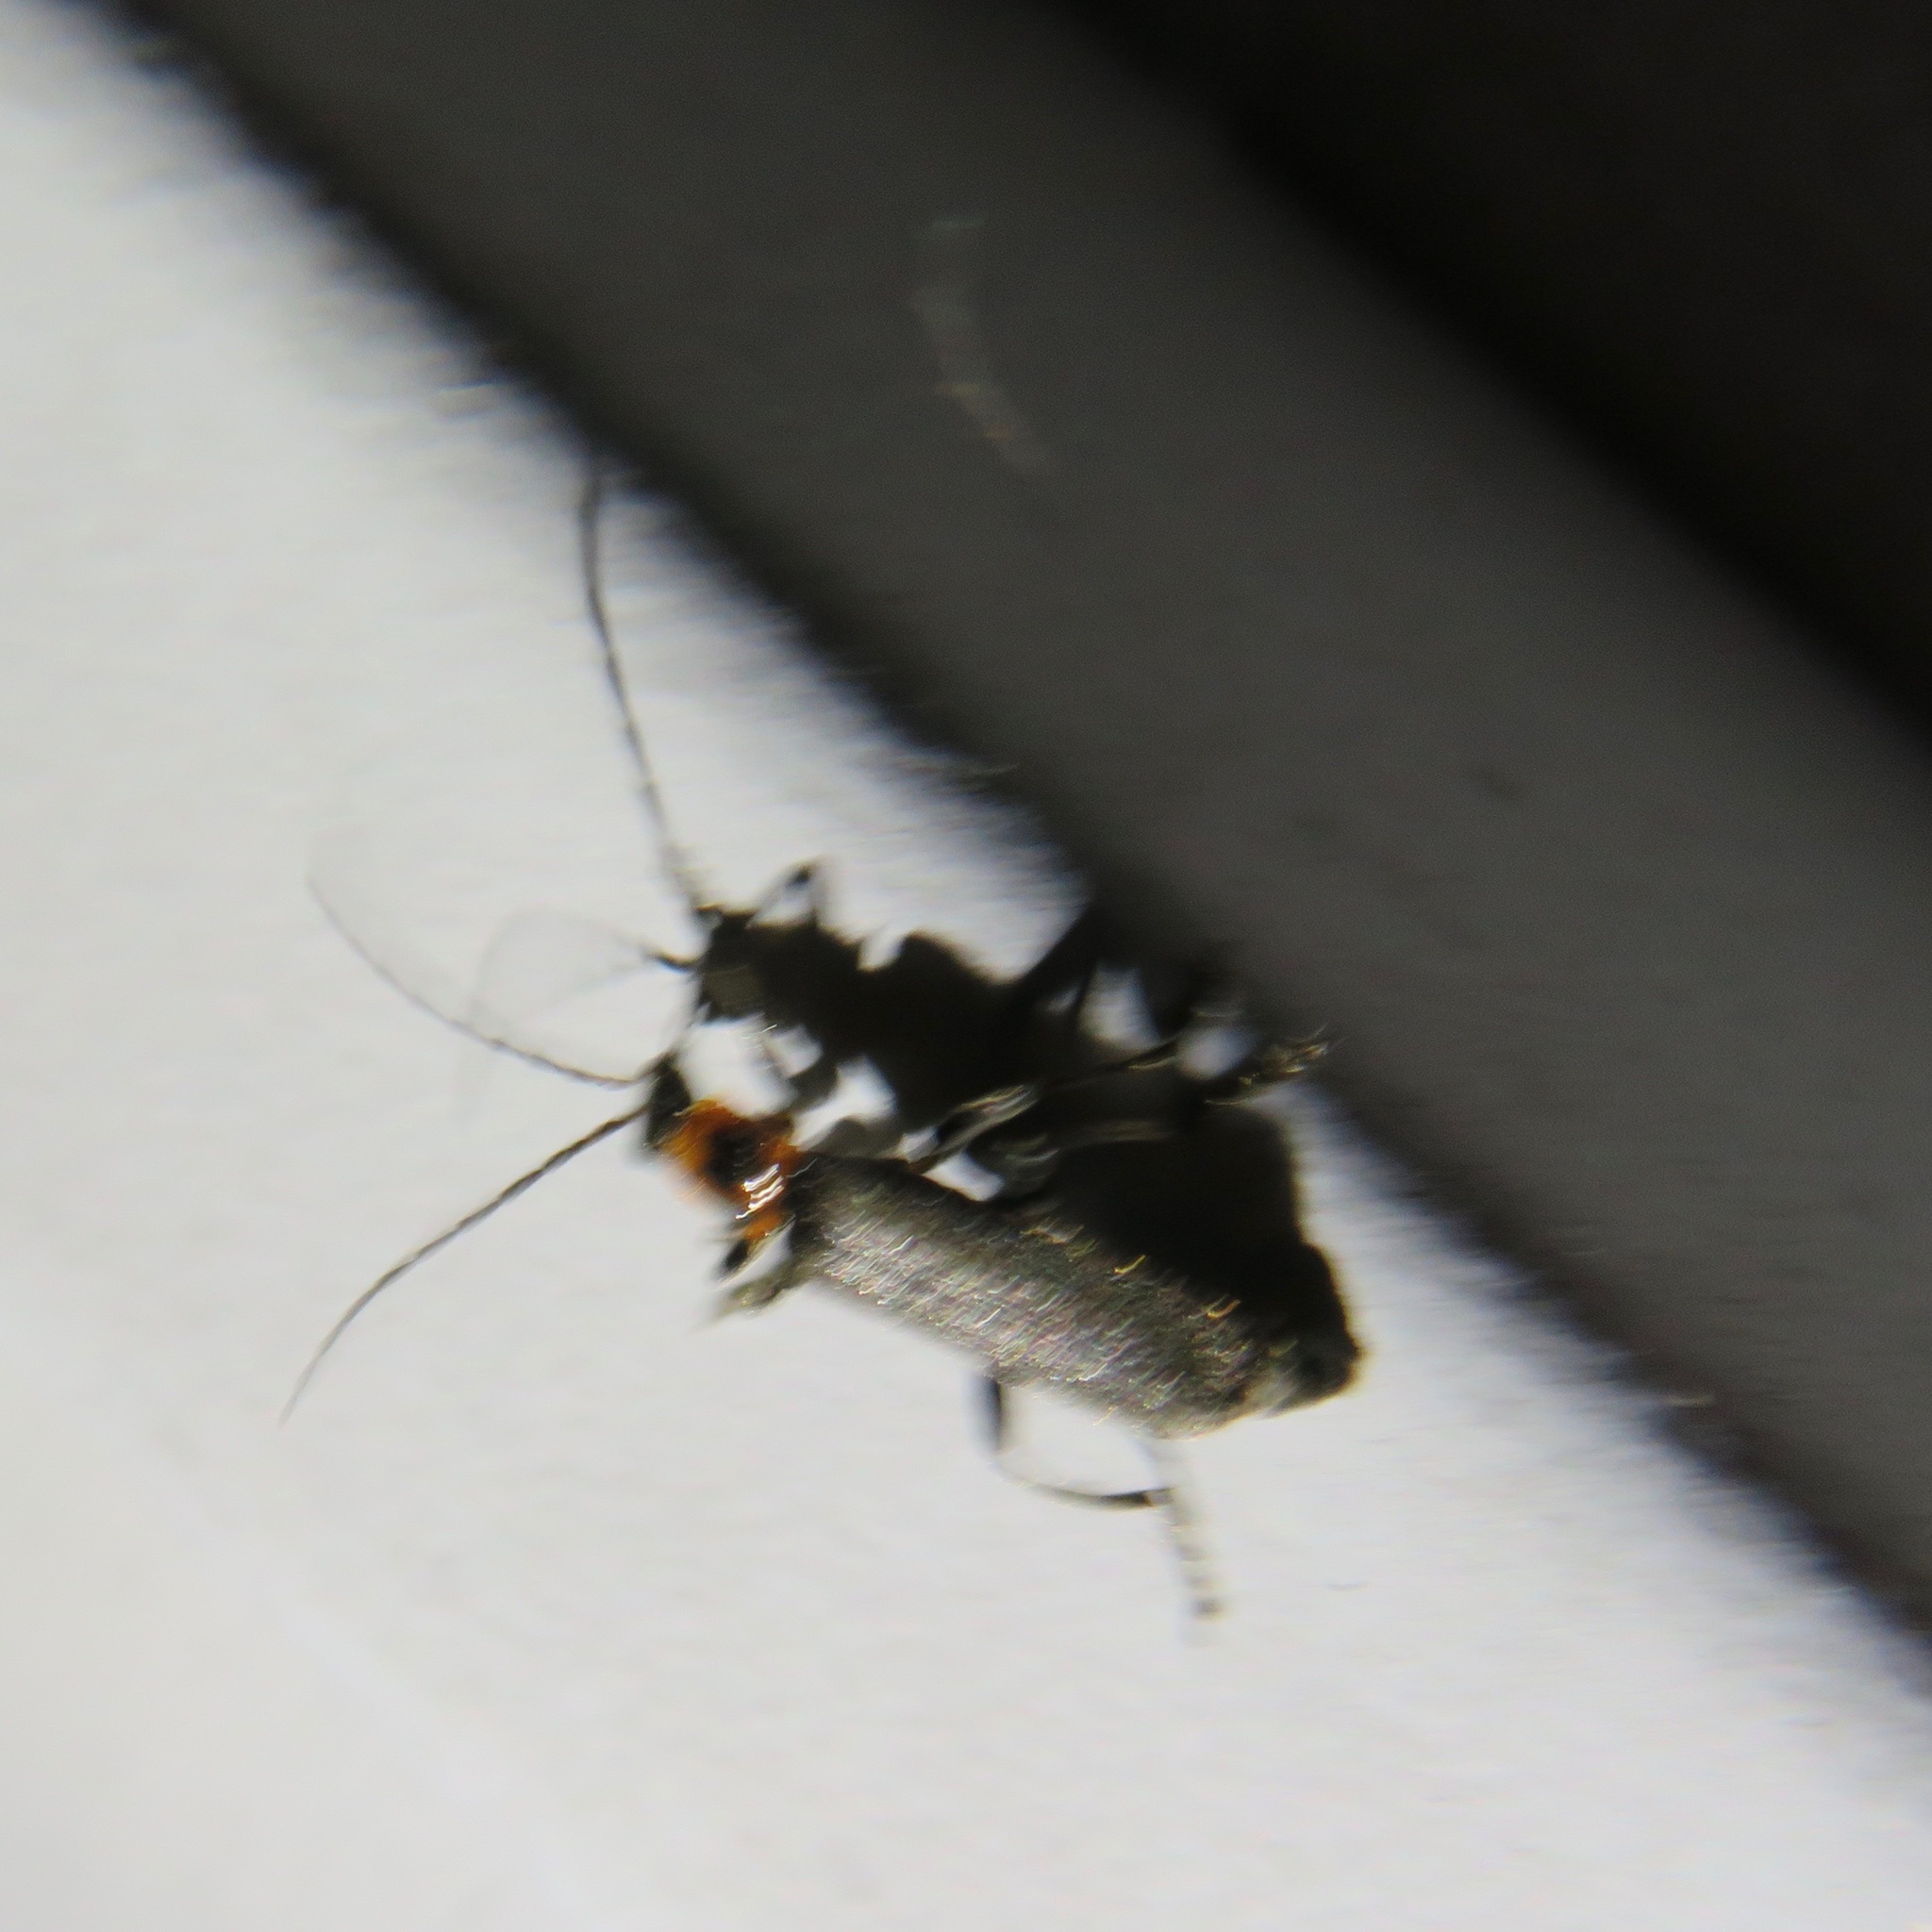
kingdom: Animalia
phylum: Arthropoda
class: Insecta
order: Coleoptera
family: Cantharidae
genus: Cyrtomoptera
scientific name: Cyrtomoptera divisa
